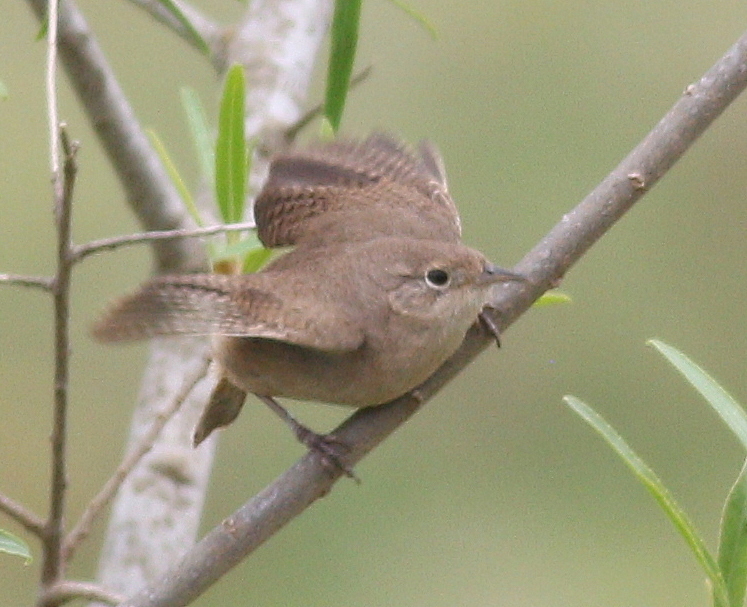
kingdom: Animalia
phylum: Chordata
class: Aves
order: Passeriformes
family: Troglodytidae
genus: Troglodytes
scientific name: Troglodytes aedon
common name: House wren
